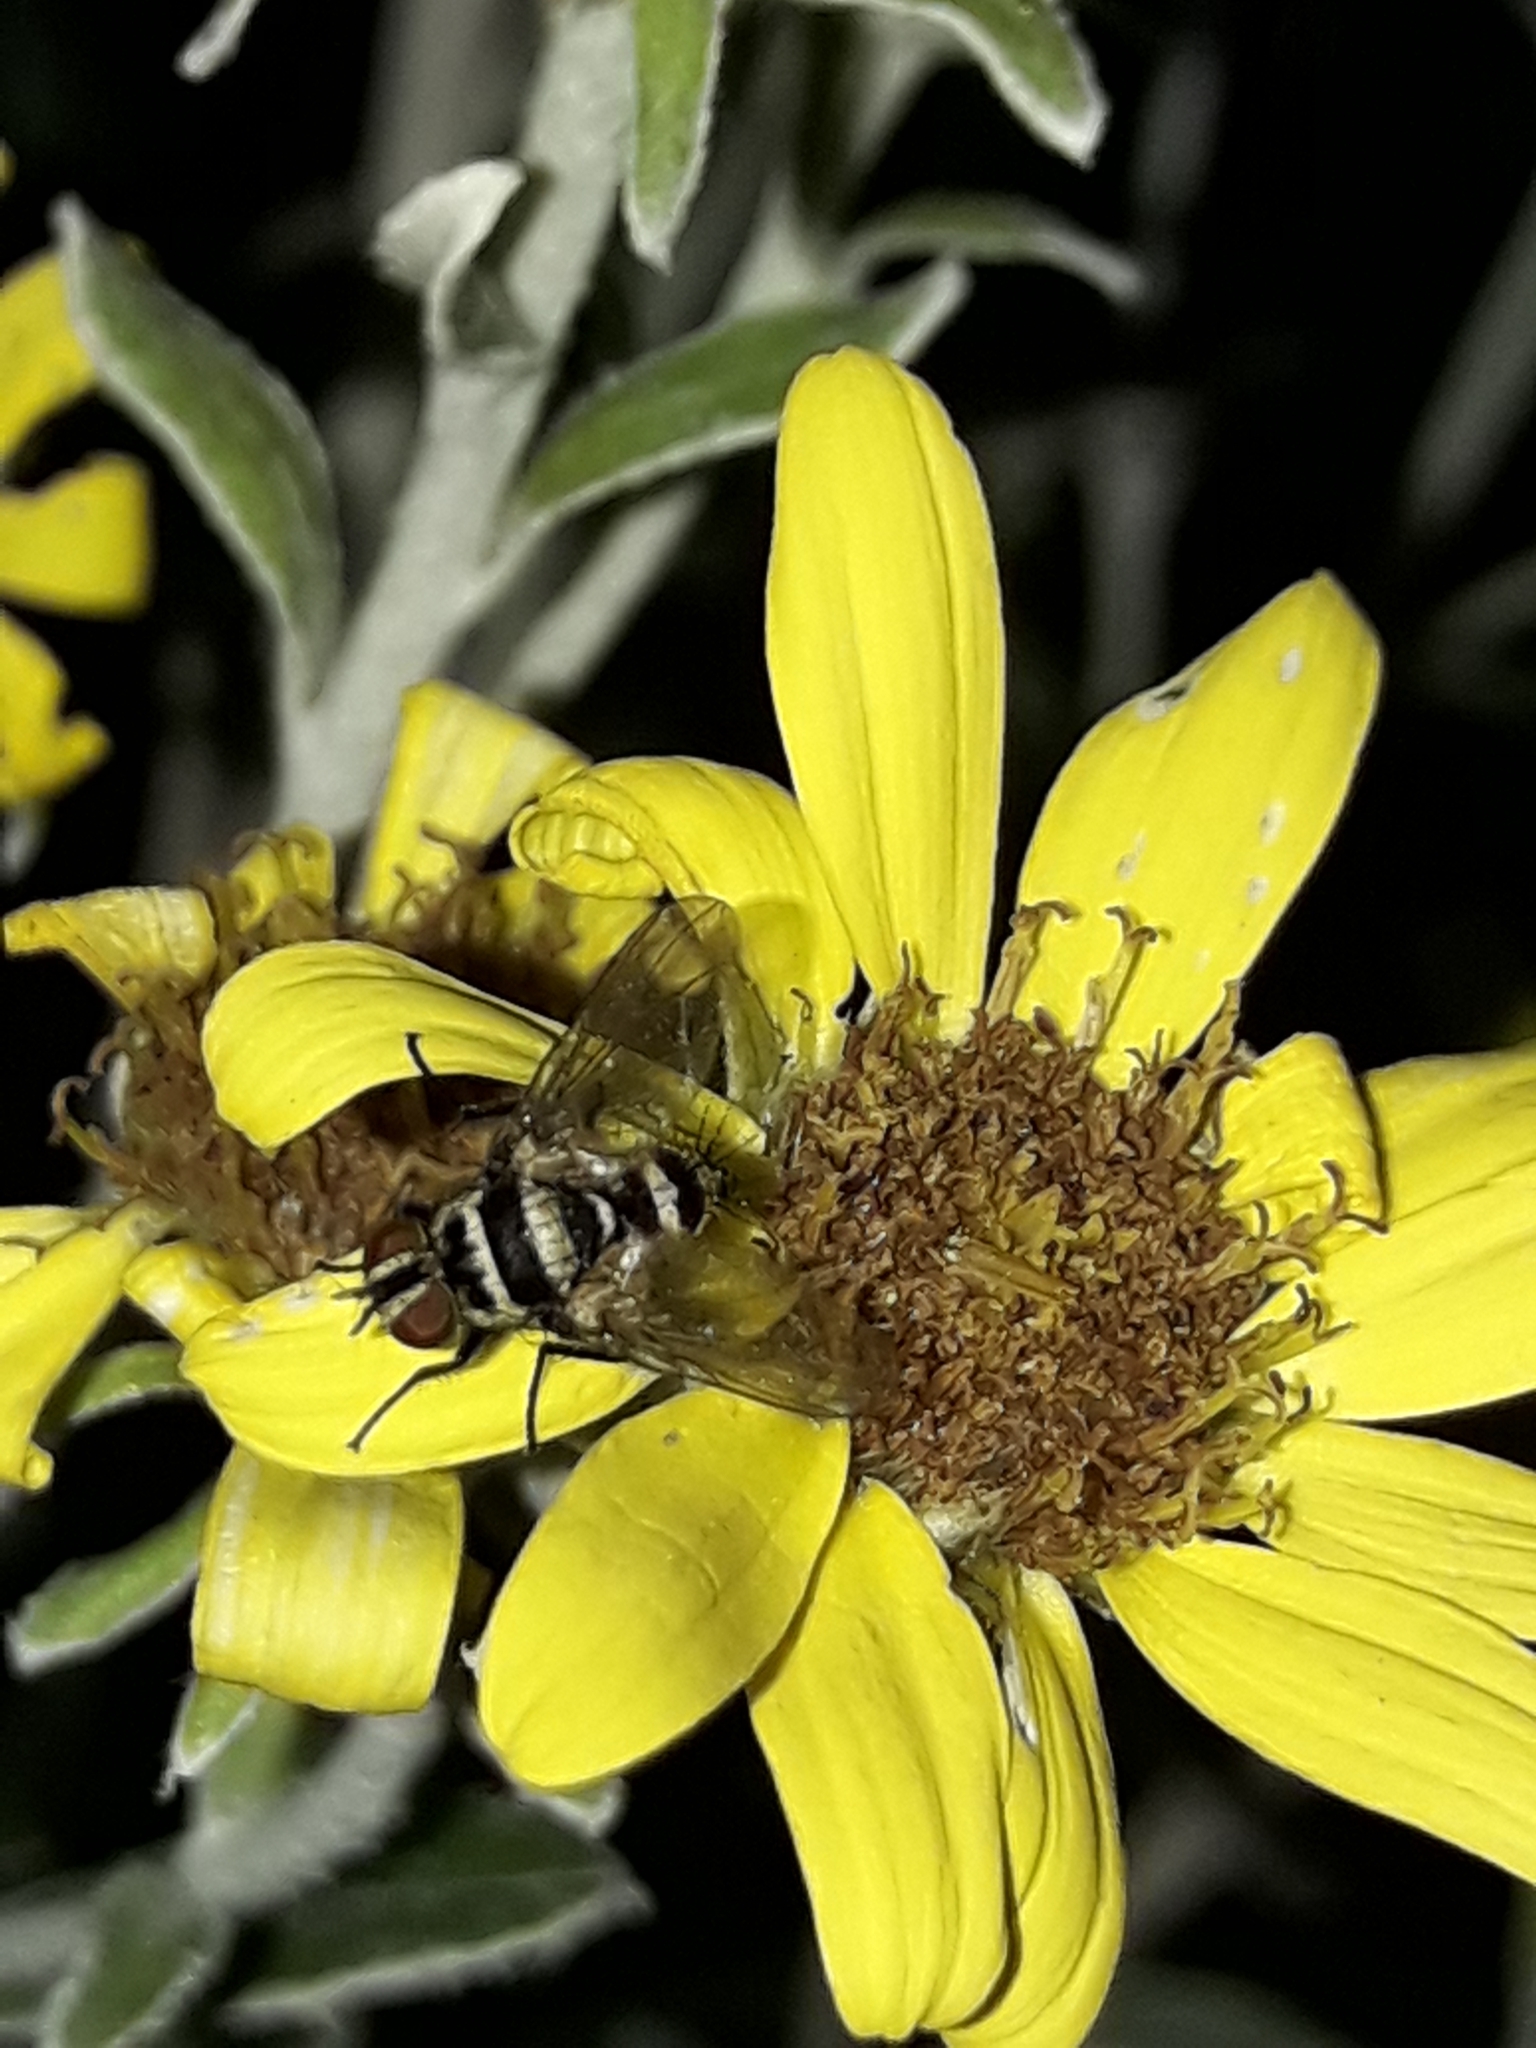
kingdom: Animalia
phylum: Arthropoda
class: Insecta
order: Diptera
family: Tachinidae
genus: Trigonospila
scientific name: Trigonospila brevifacies
